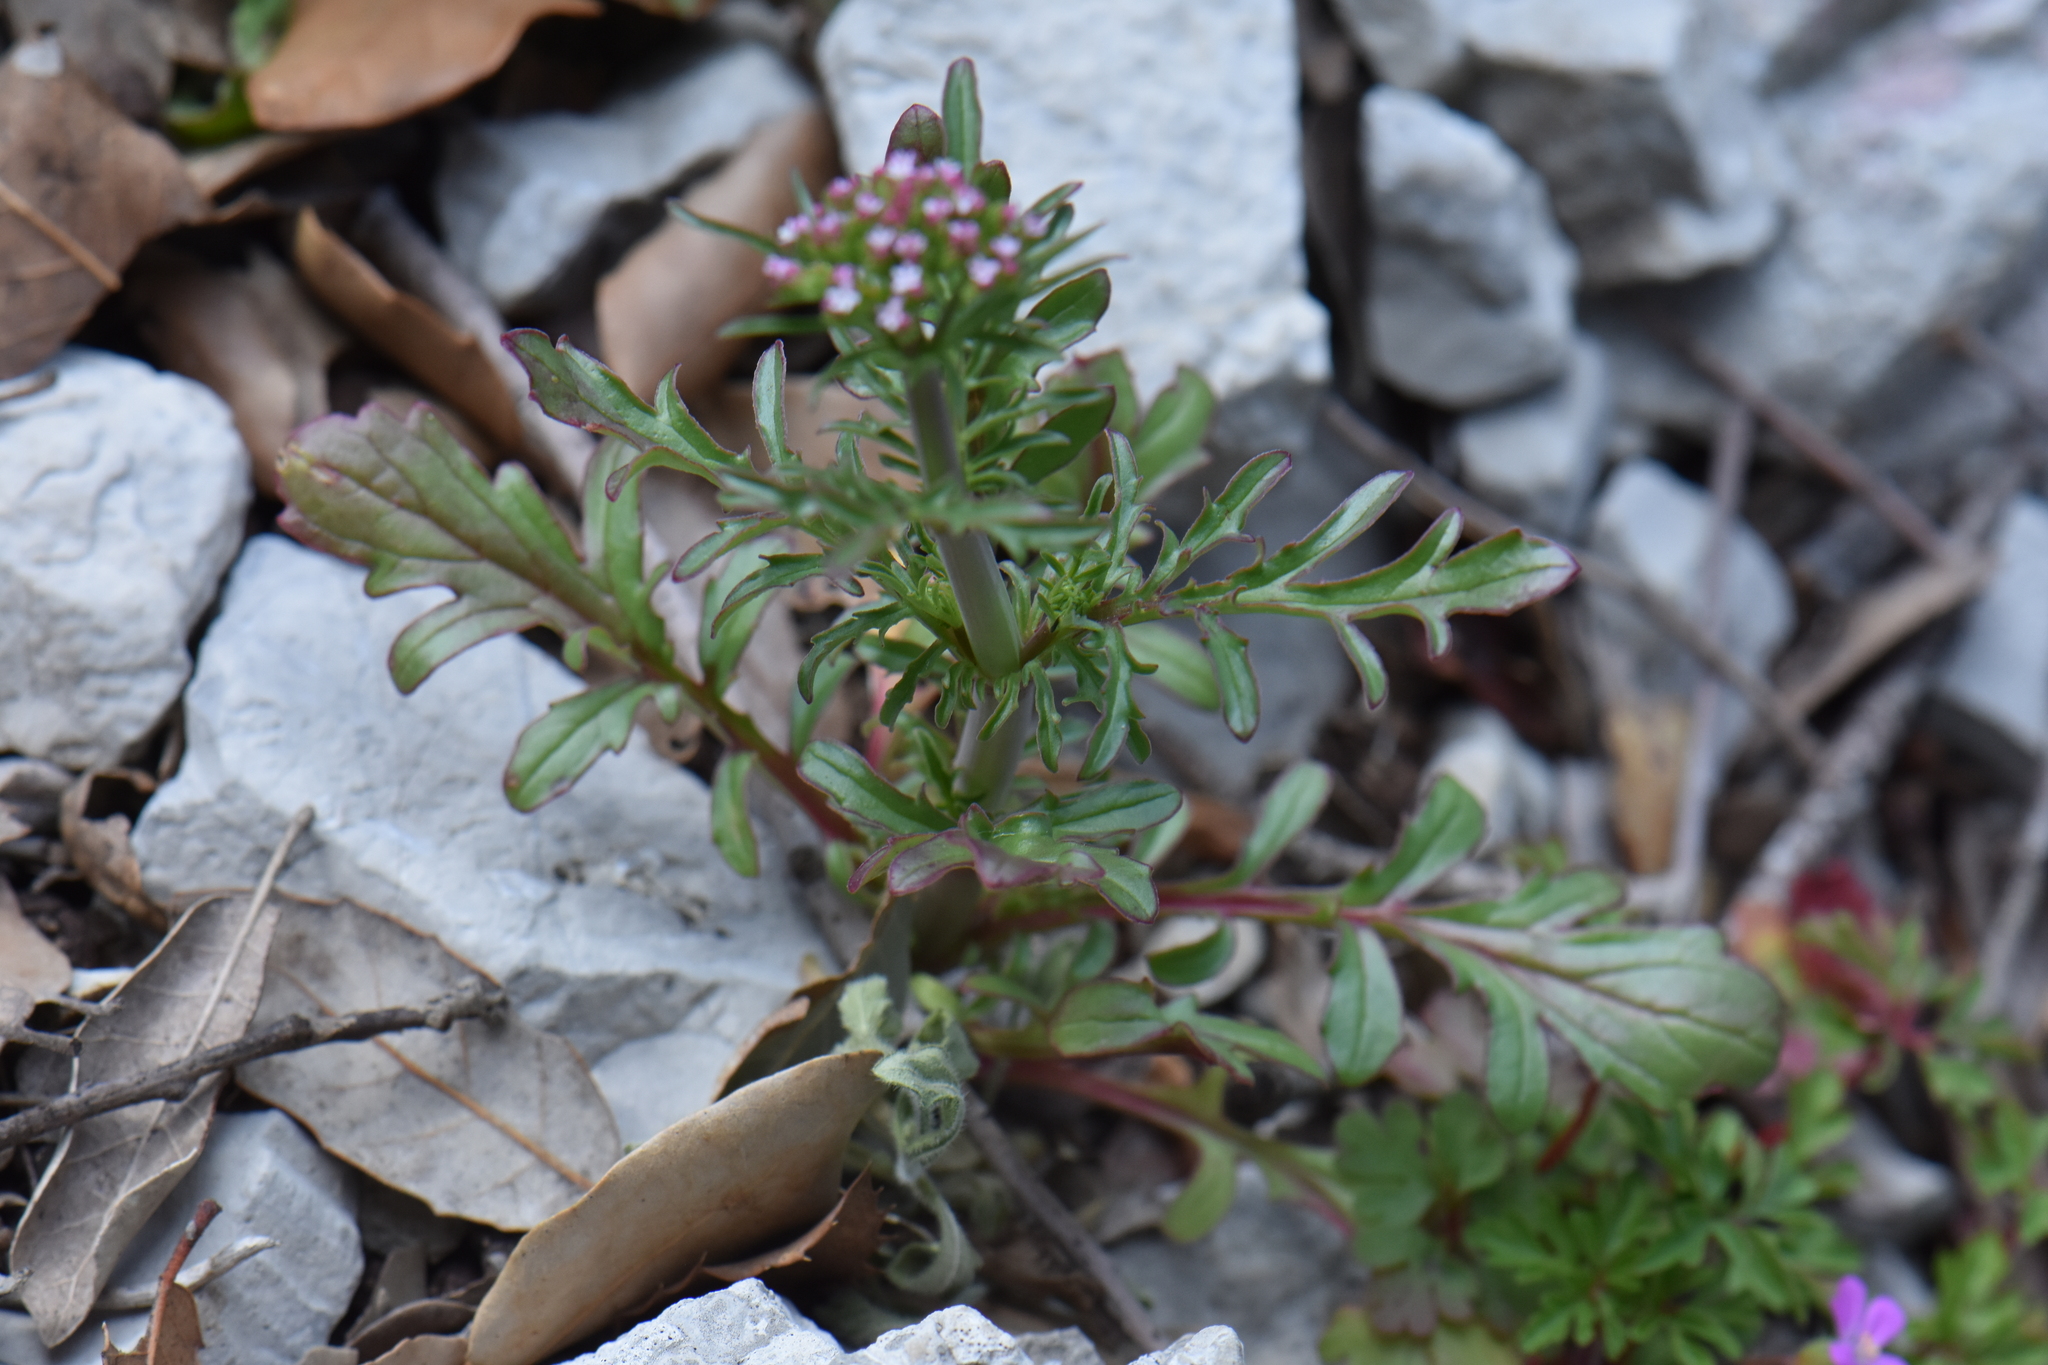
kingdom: Plantae
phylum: Tracheophyta
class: Magnoliopsida
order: Dipsacales
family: Caprifoliaceae
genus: Centranthus
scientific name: Centranthus calcitrapae
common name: Annual valerian
